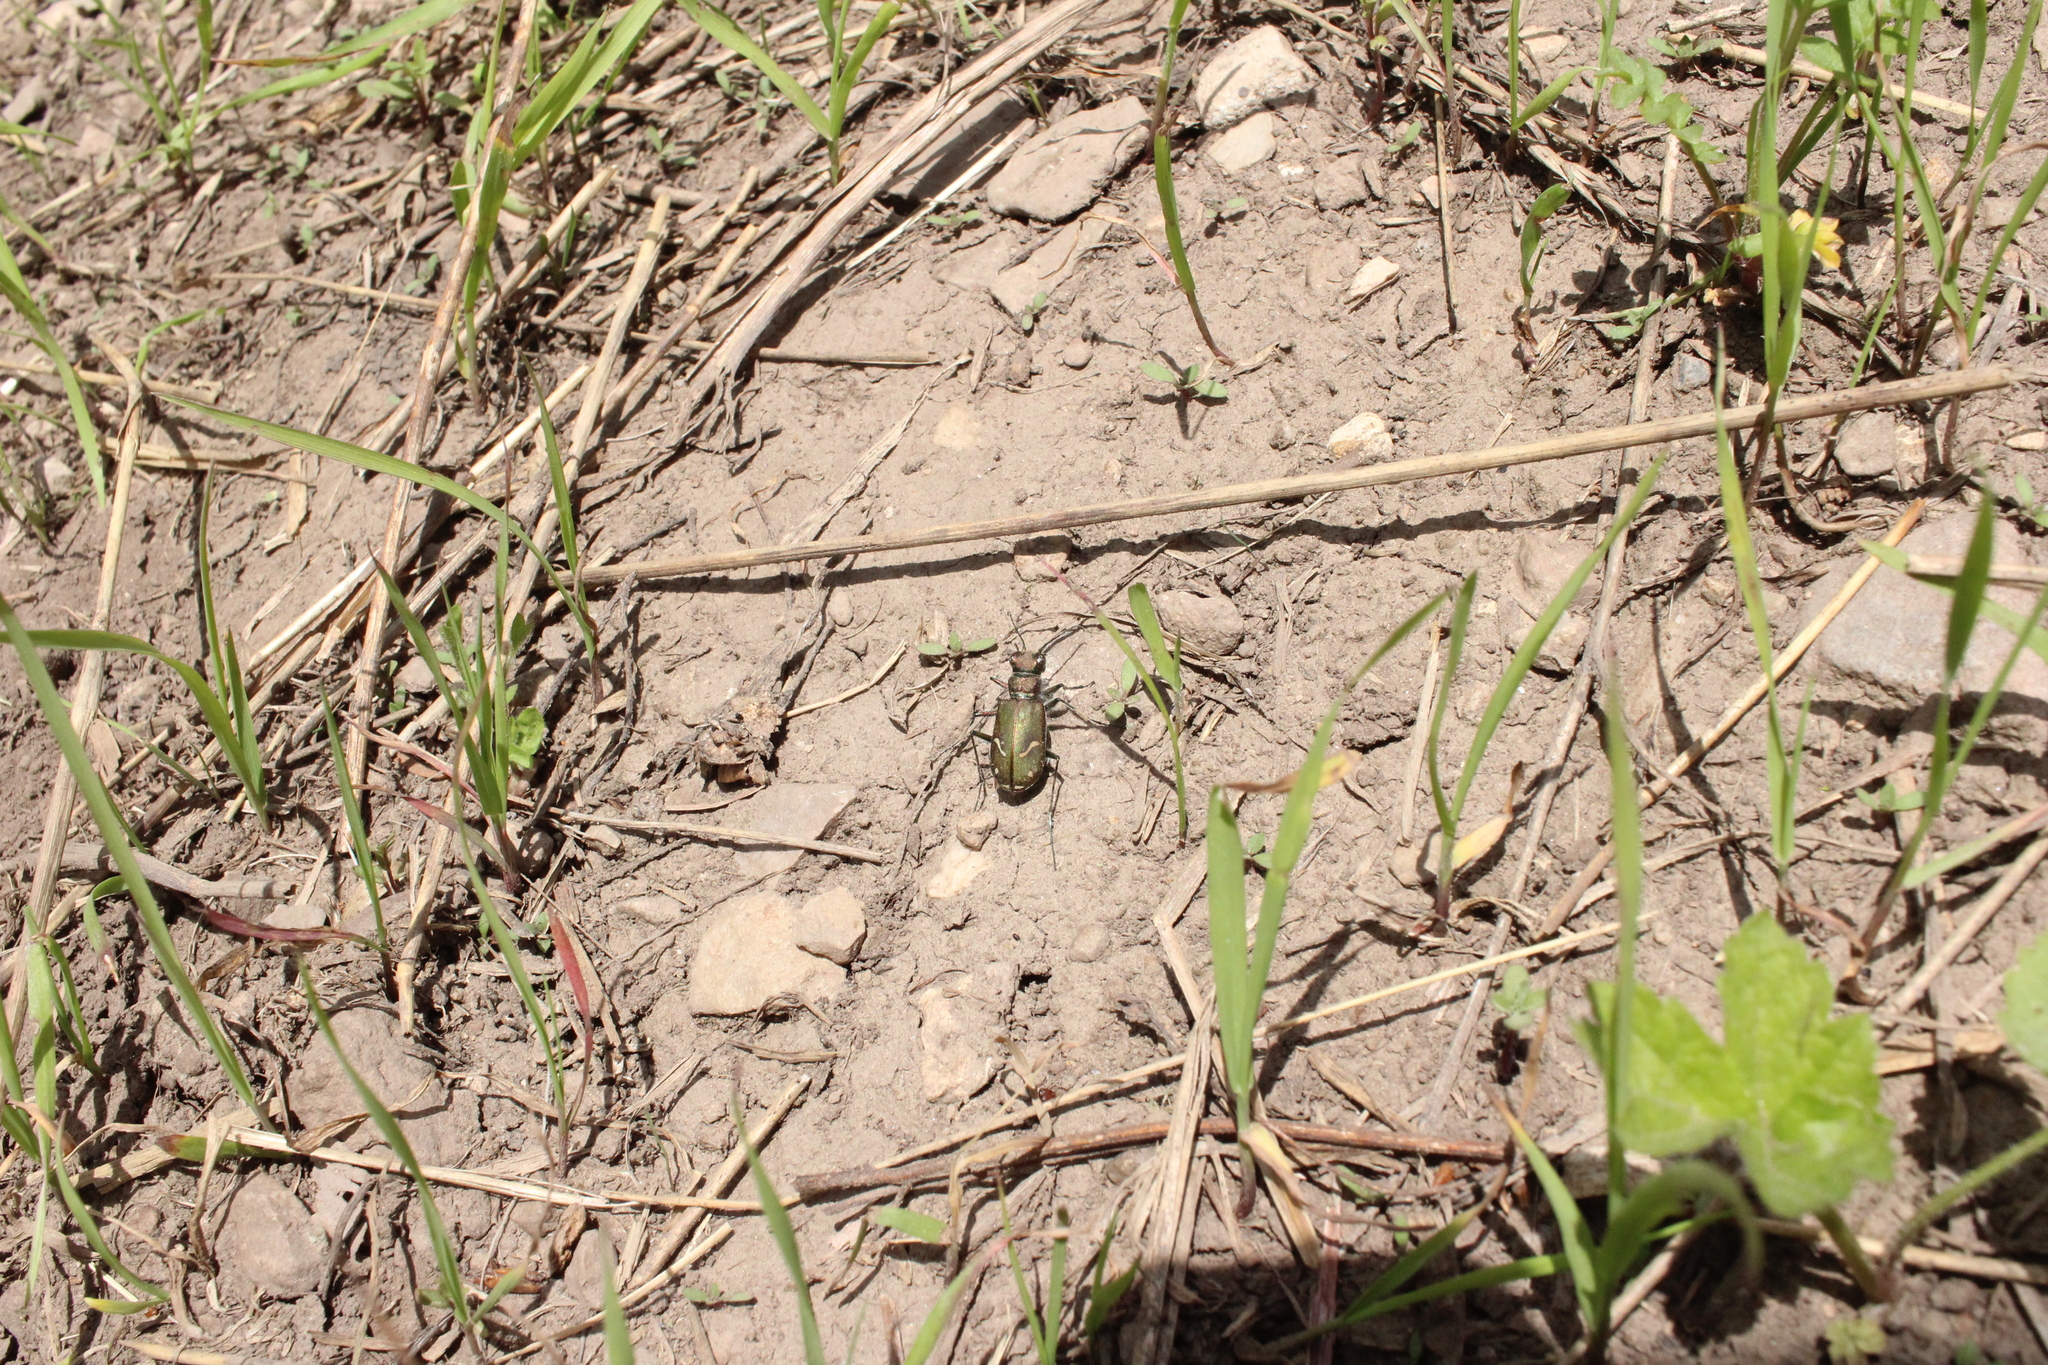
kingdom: Animalia
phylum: Arthropoda
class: Insecta
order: Coleoptera
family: Carabidae
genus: Cicindela
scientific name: Cicindela purpurea
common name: Cow path tiger beetle
